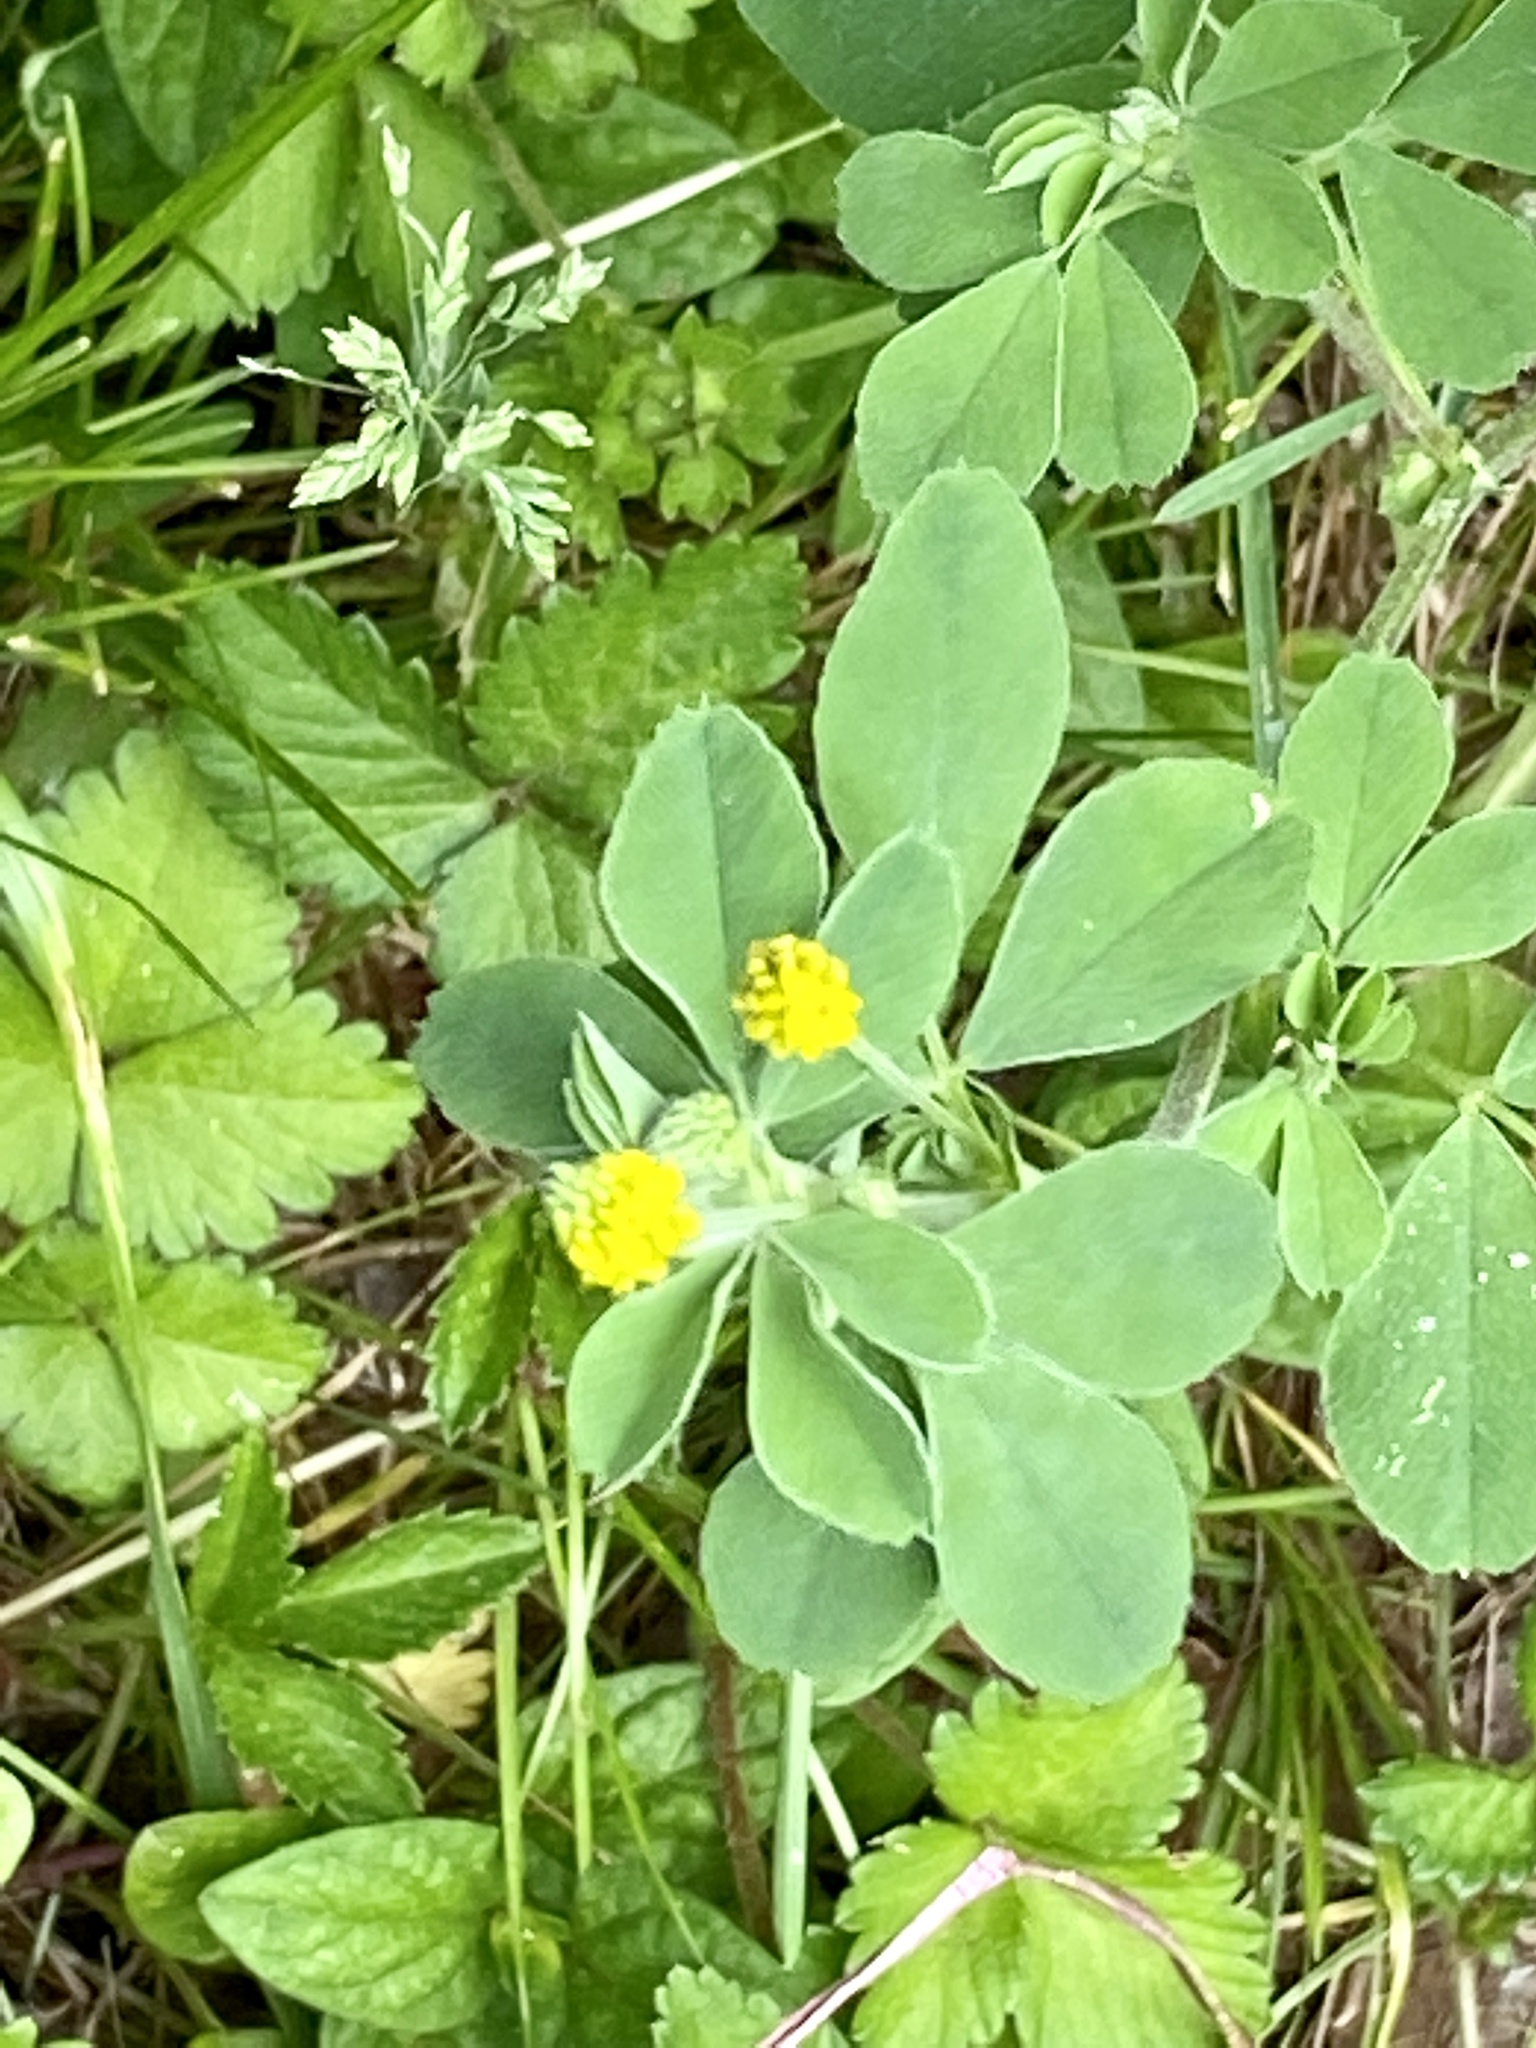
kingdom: Plantae
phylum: Tracheophyta
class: Magnoliopsida
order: Fabales
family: Fabaceae
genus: Medicago
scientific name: Medicago lupulina
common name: Black medick
